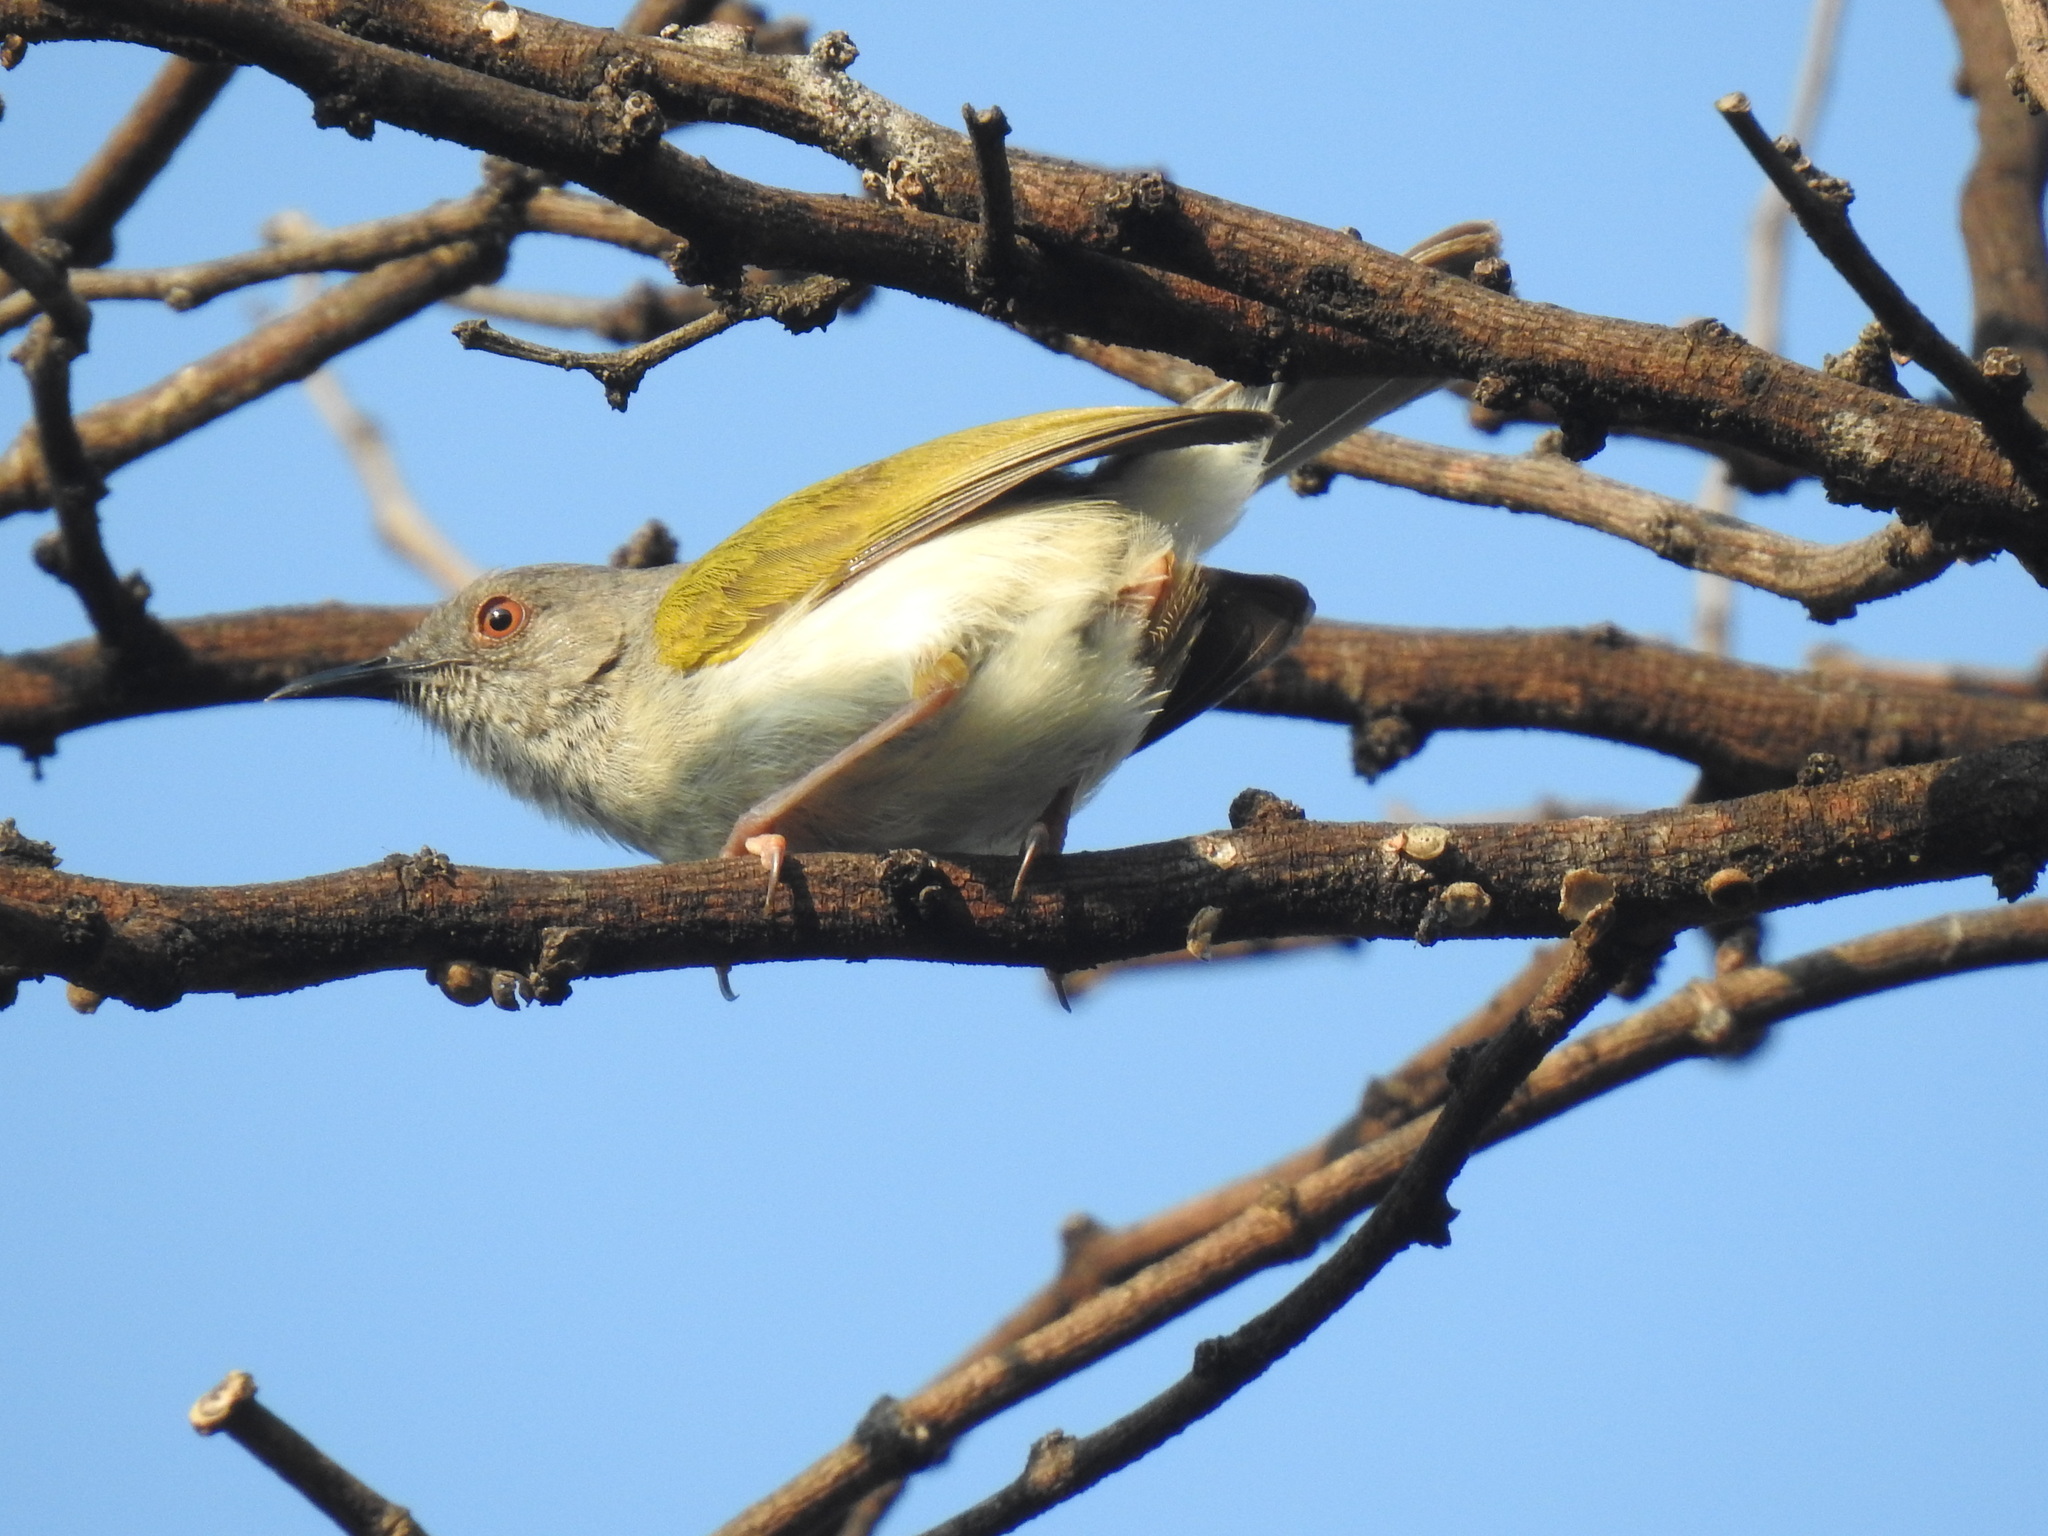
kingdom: Animalia
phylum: Chordata
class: Aves
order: Passeriformes
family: Cisticolidae
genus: Camaroptera
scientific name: Camaroptera brachyura
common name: Green-backed camaroptera
